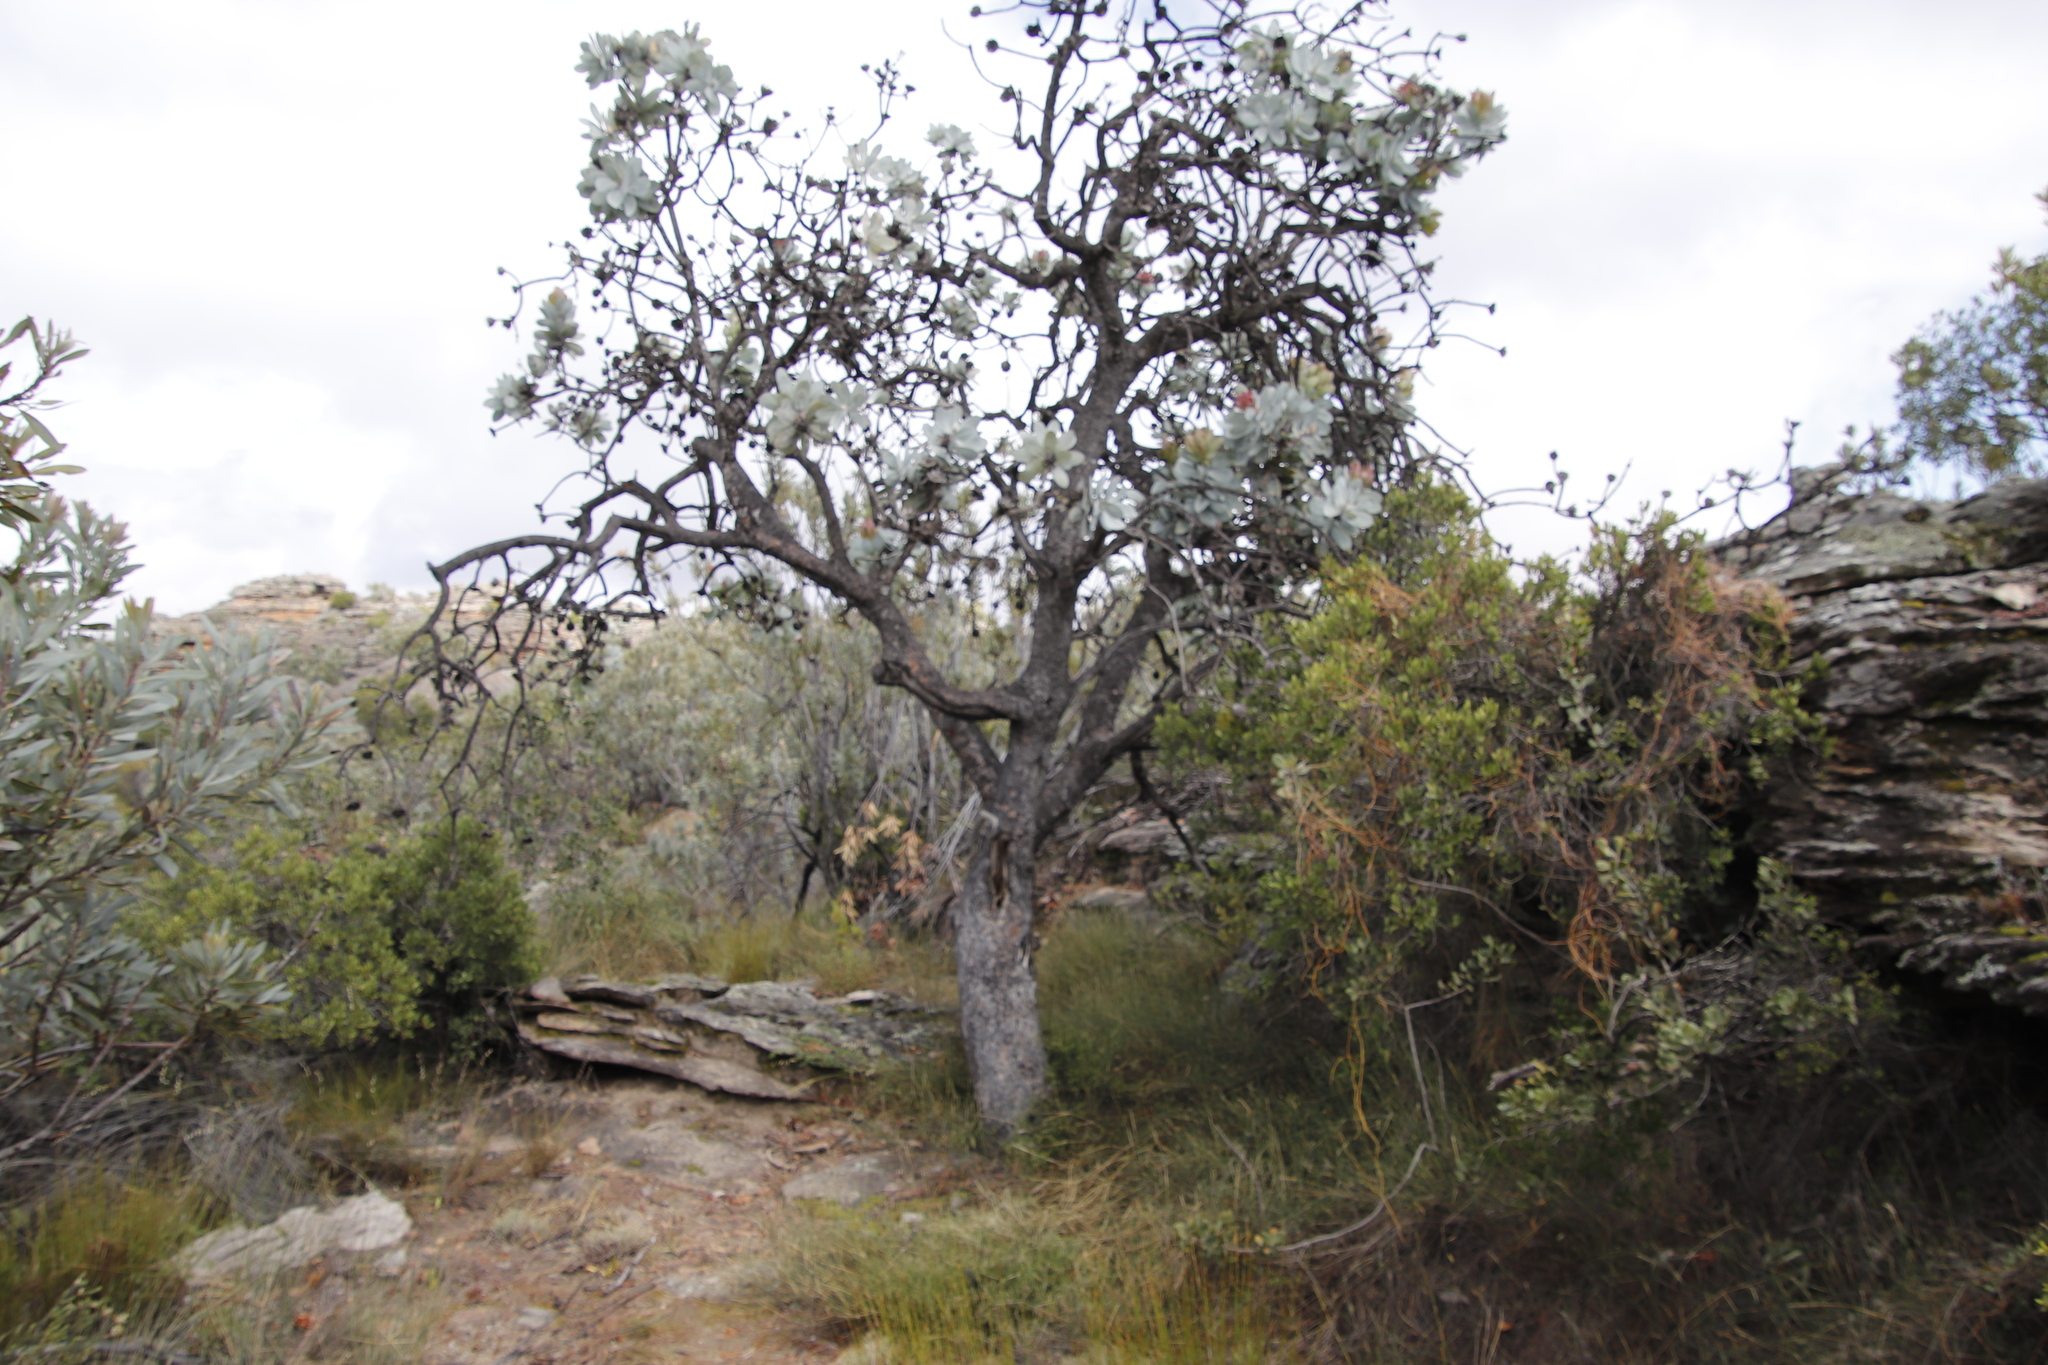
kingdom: Plantae
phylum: Tracheophyta
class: Magnoliopsida
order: Proteales
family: Proteaceae
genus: Protea
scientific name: Protea nitida
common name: Tree protea
